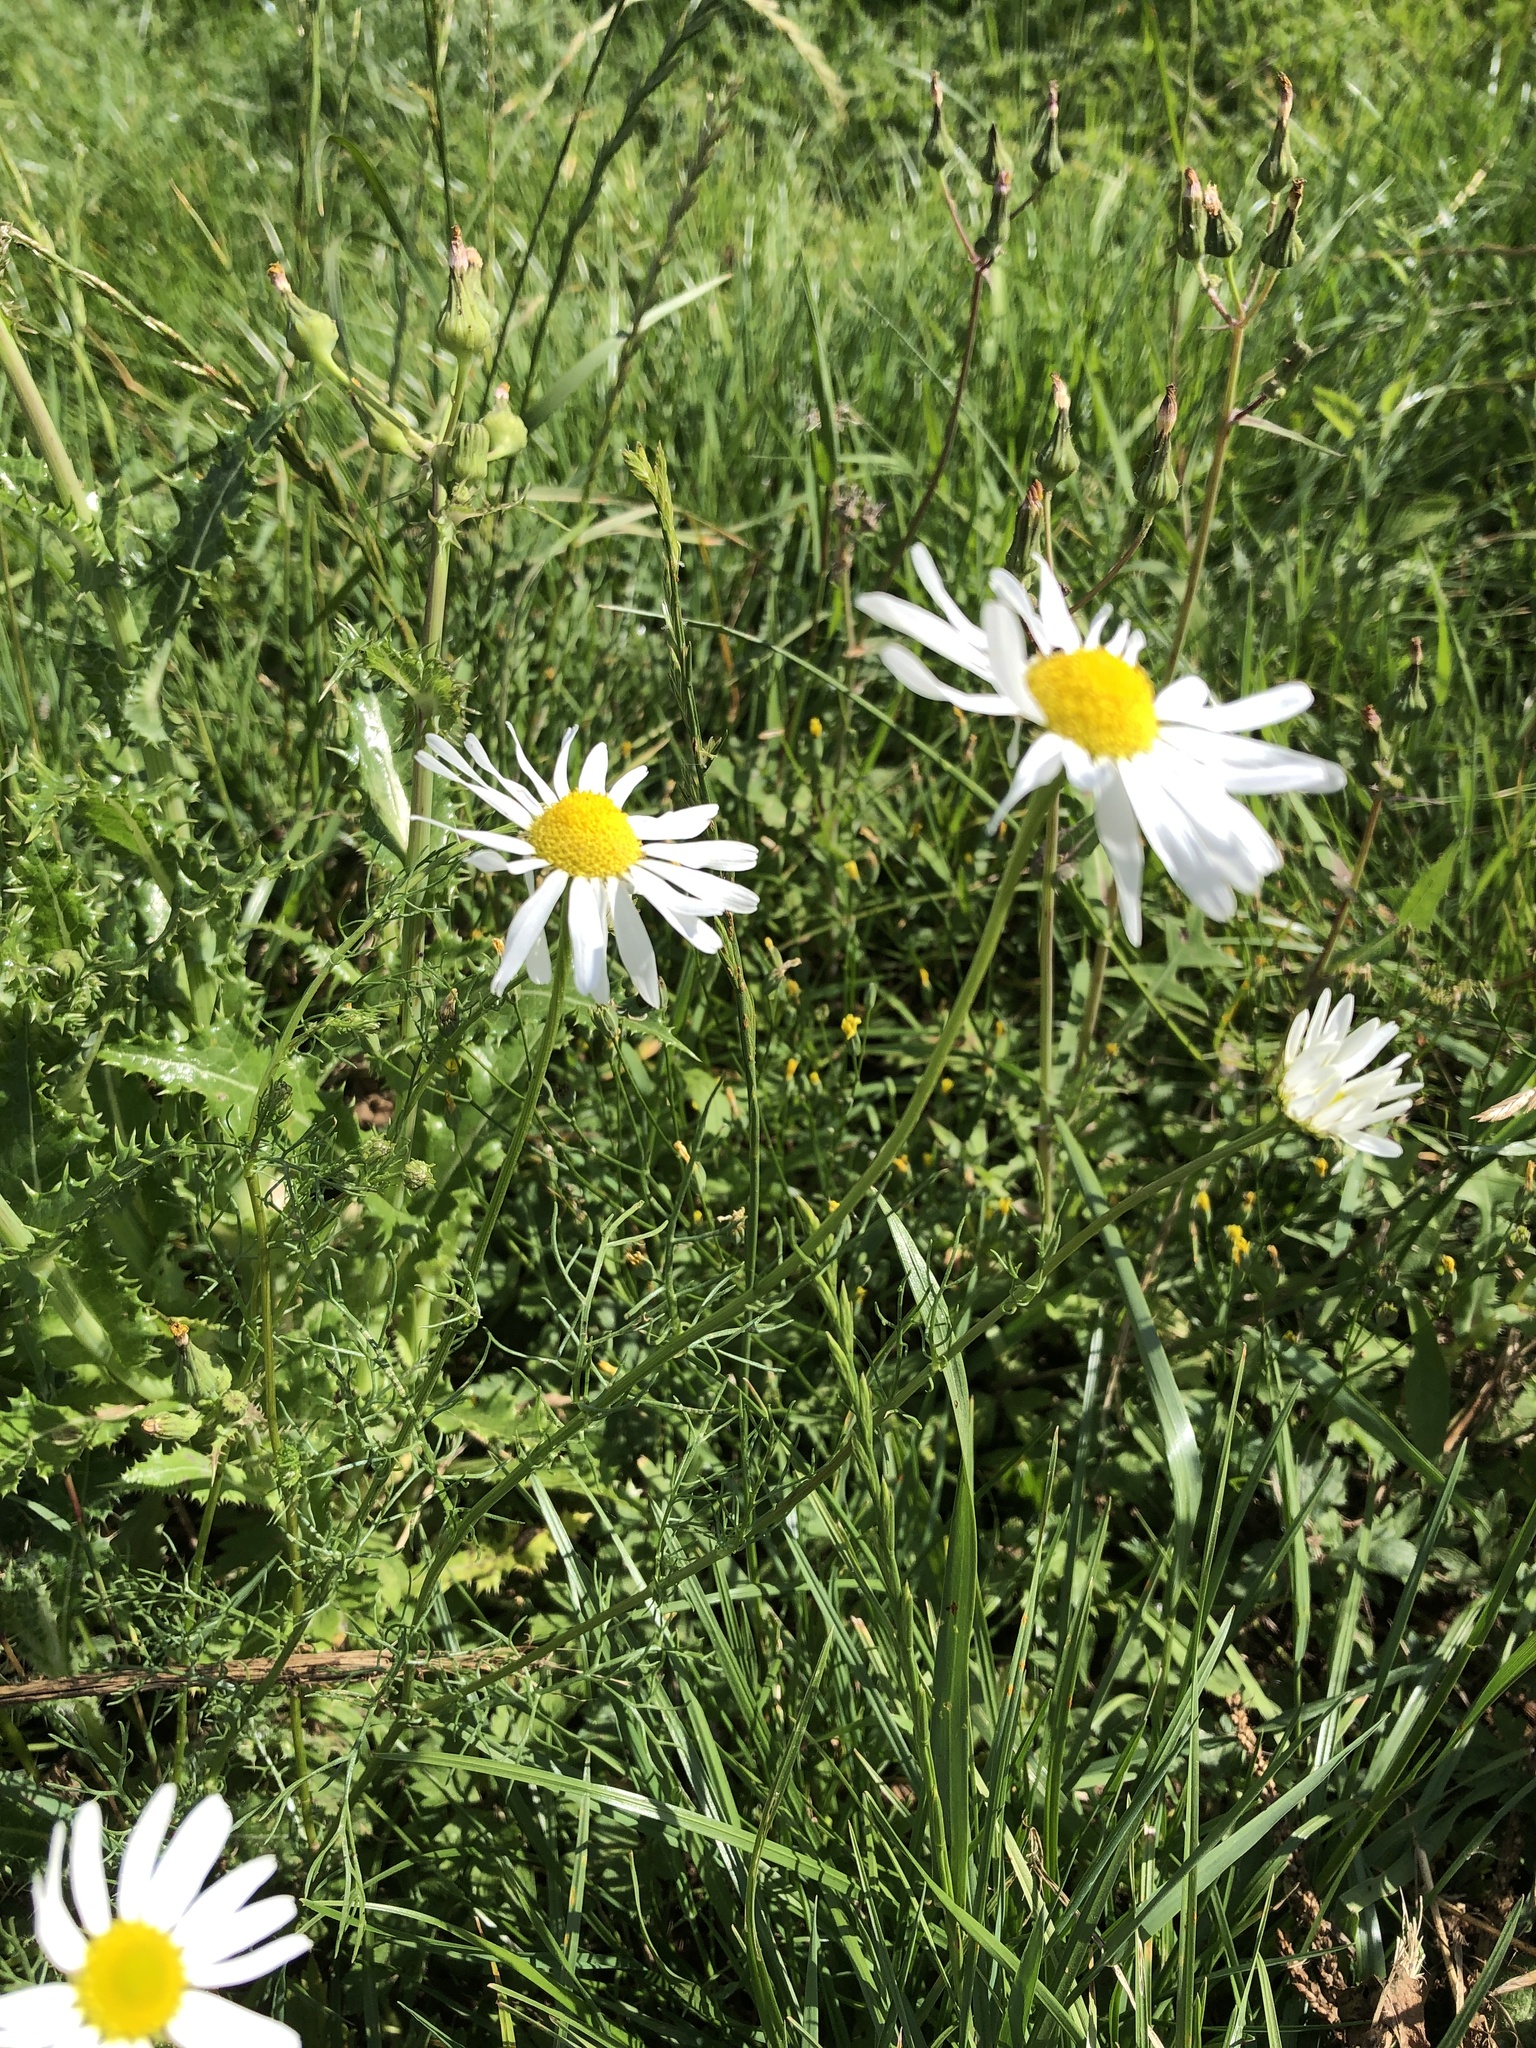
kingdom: Plantae
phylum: Tracheophyta
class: Magnoliopsida
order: Asterales
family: Asteraceae
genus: Tripleurospermum
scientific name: Tripleurospermum inodorum
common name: Scentless mayweed
